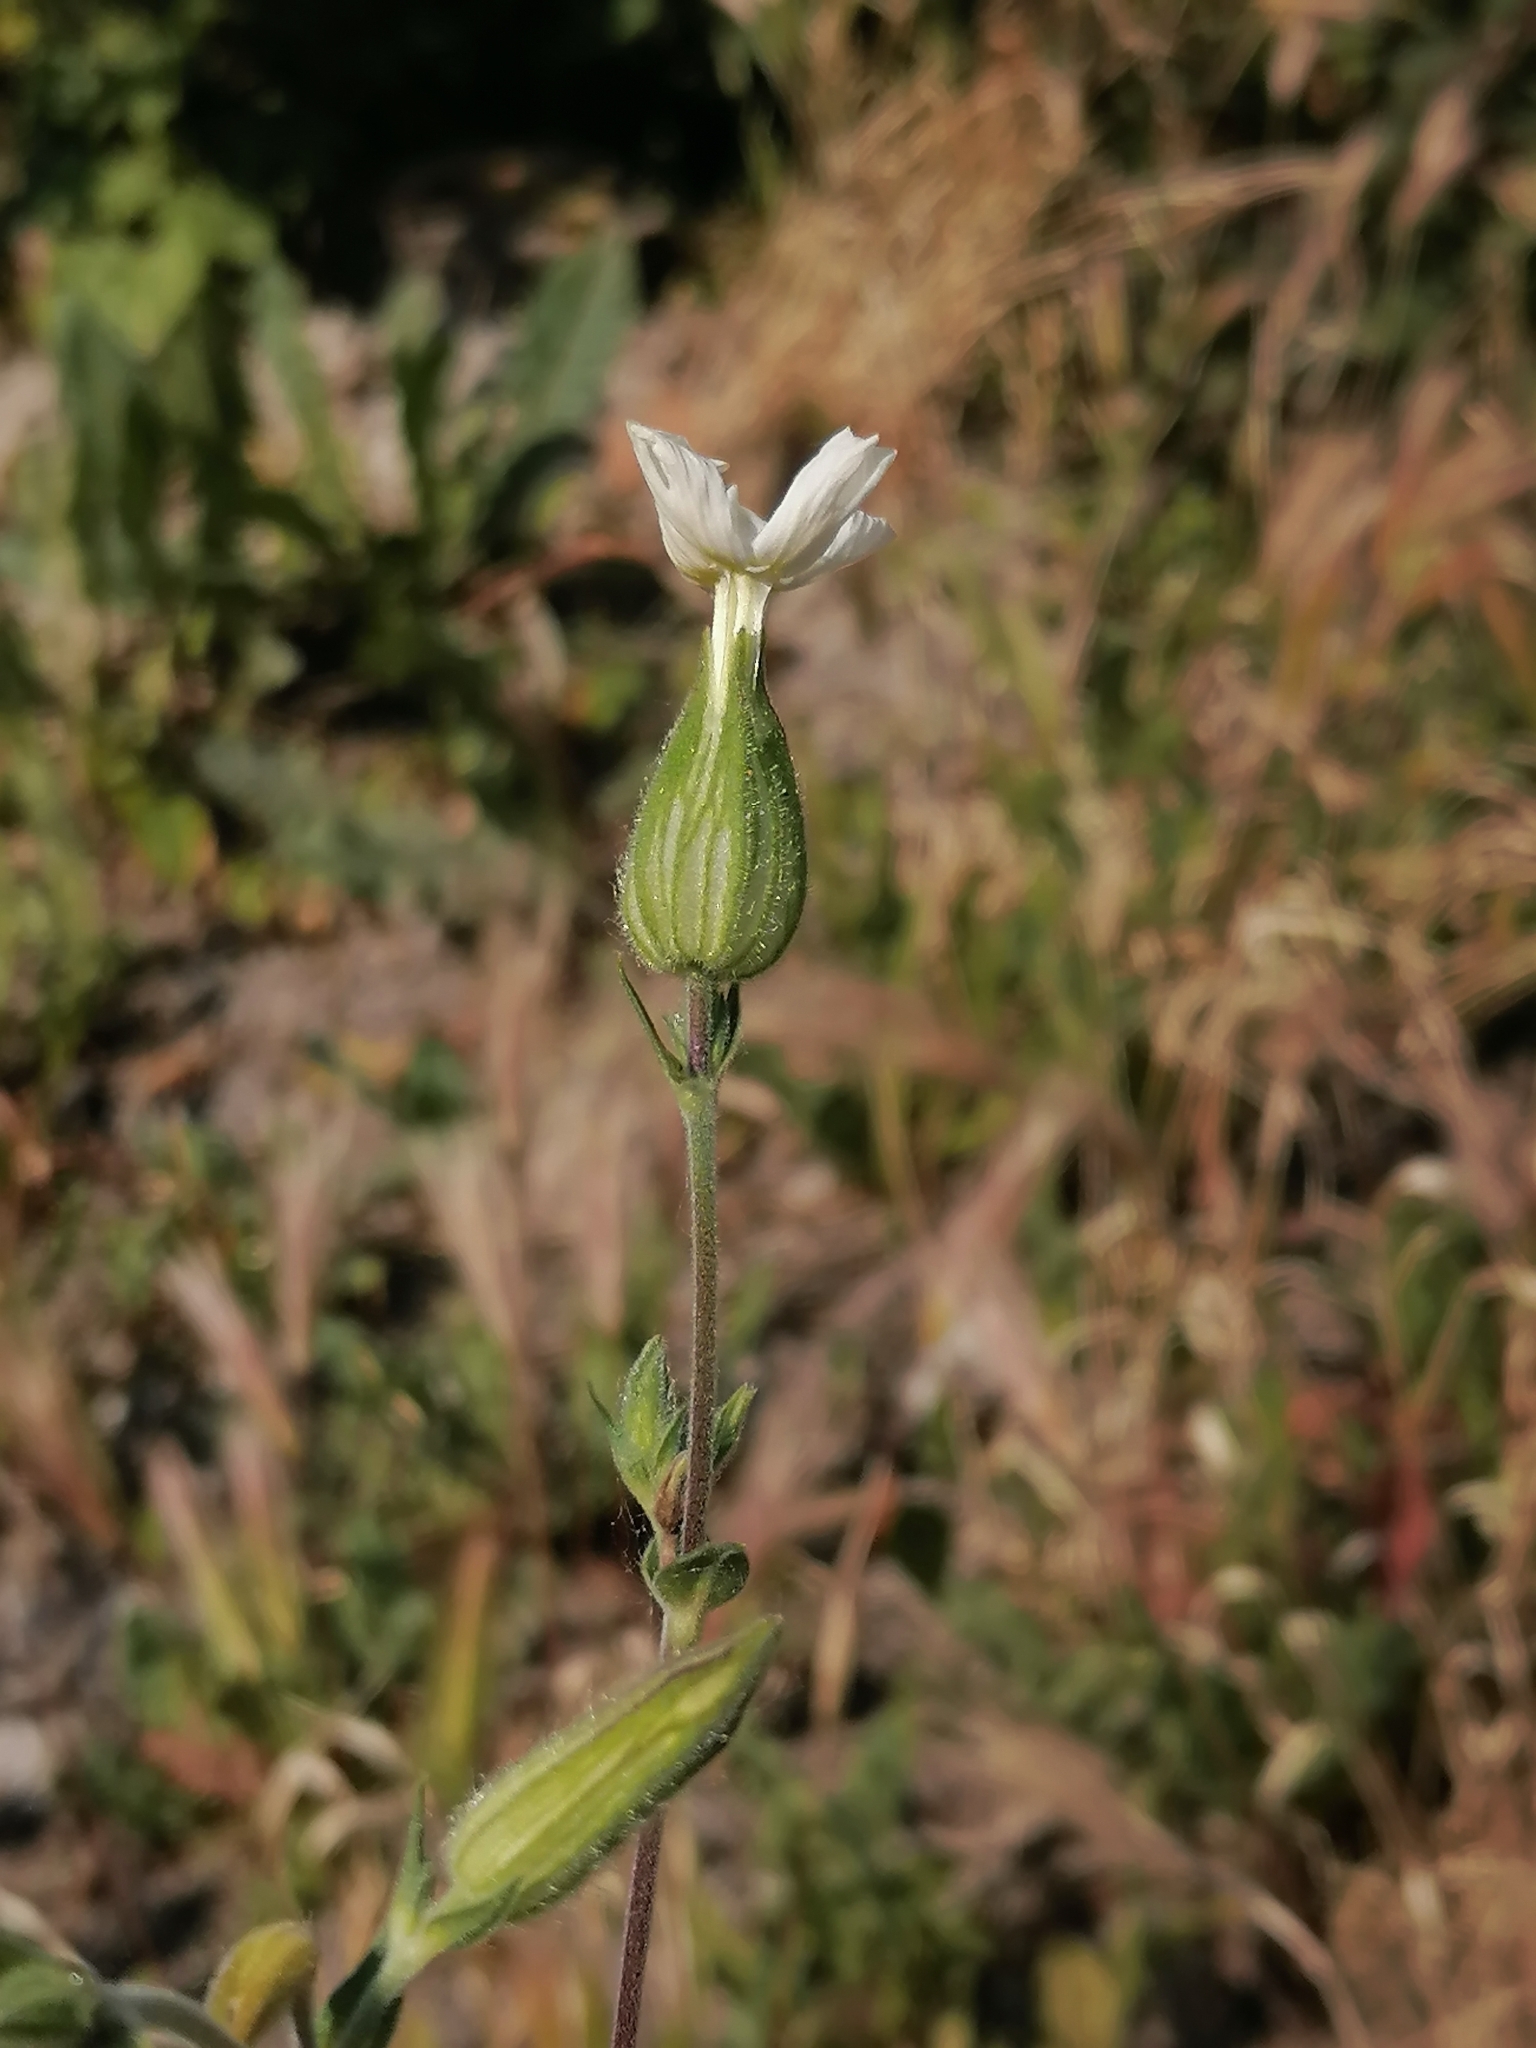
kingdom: Plantae
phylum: Tracheophyta
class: Magnoliopsida
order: Caryophyllales
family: Caryophyllaceae
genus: Silene
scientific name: Silene latifolia
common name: White campion
